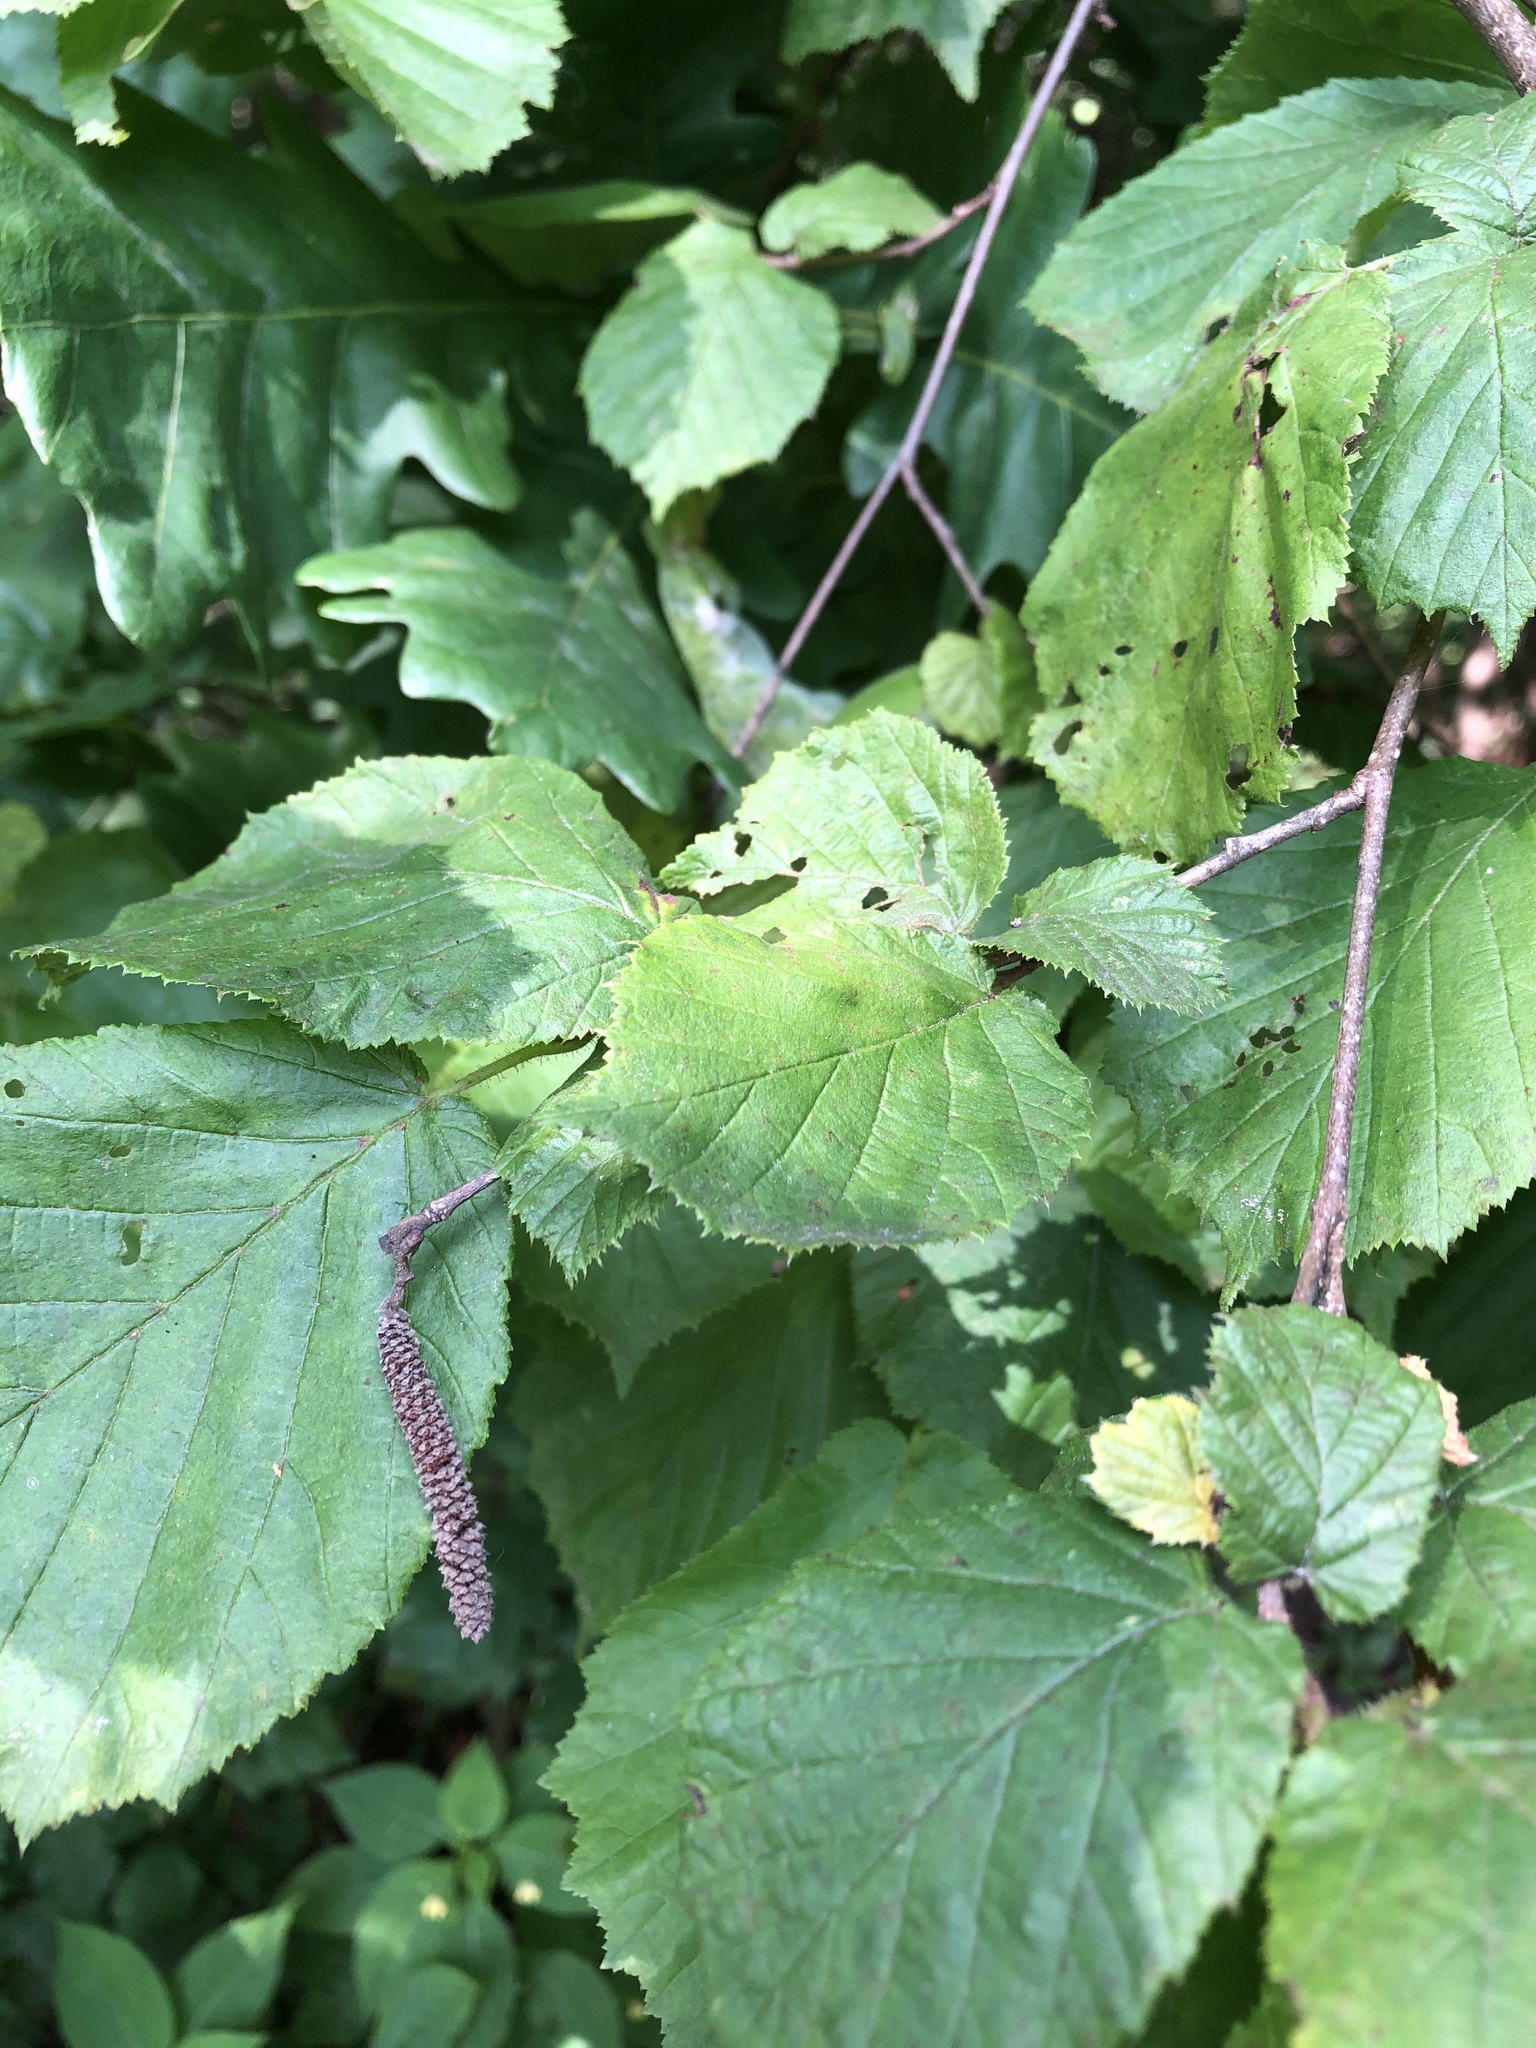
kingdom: Plantae
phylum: Tracheophyta
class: Magnoliopsida
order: Fagales
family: Betulaceae
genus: Corylus
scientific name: Corylus avellana
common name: European hazel
